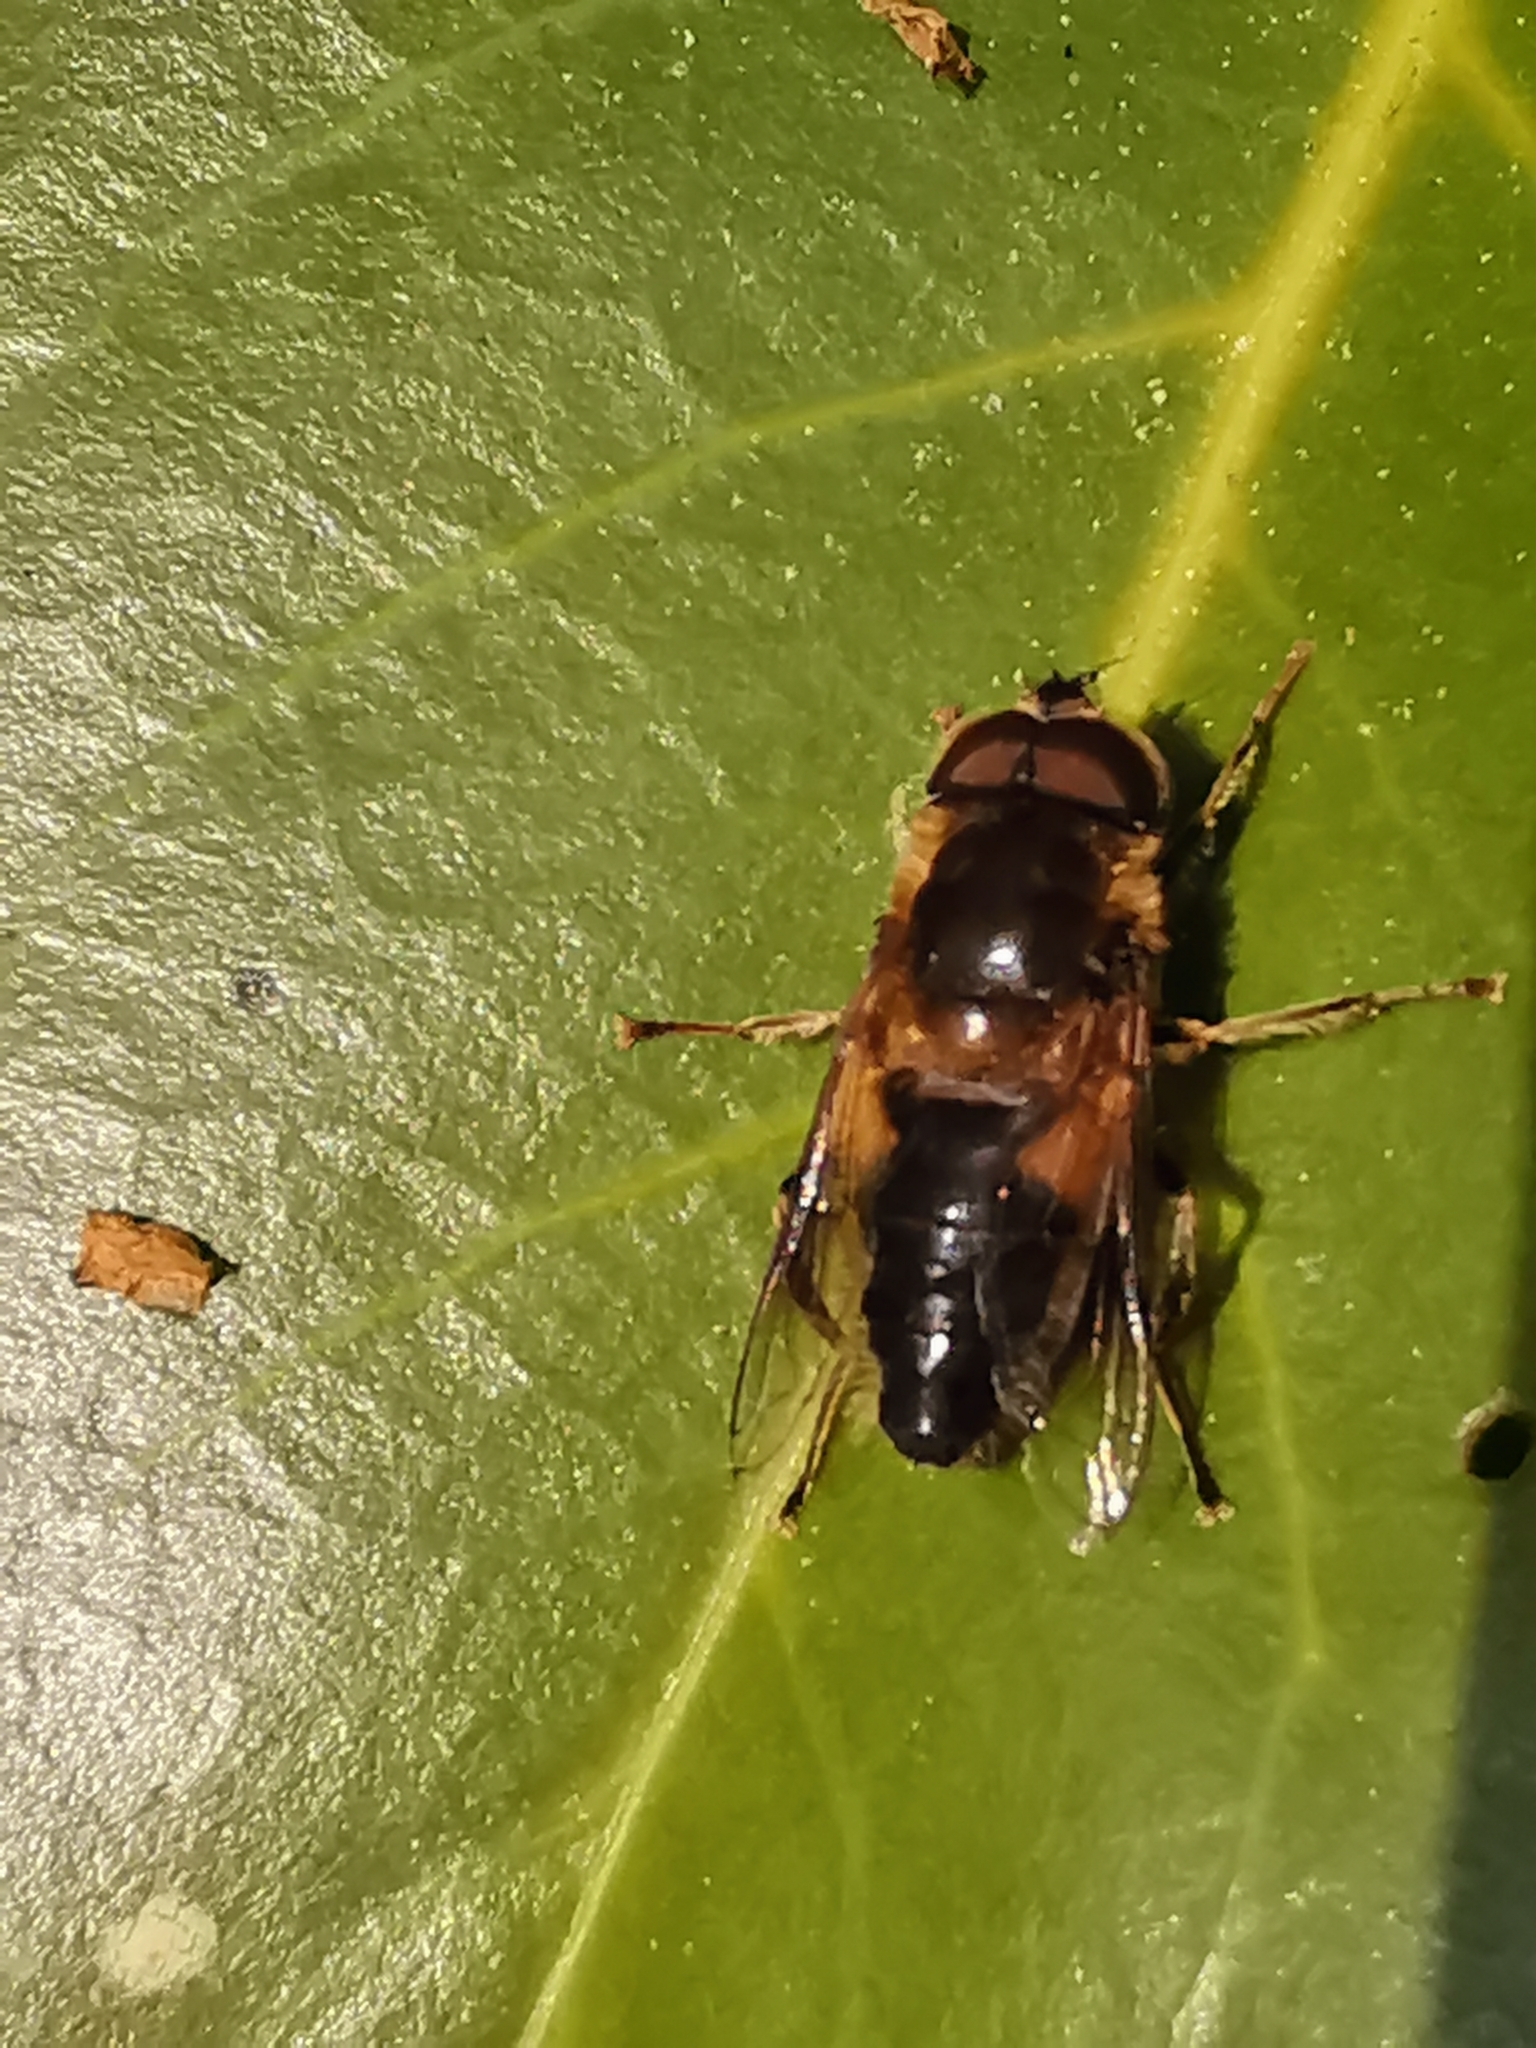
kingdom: Animalia
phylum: Arthropoda
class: Insecta
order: Diptera
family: Syrphidae
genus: Eristalis
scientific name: Eristalis pertinax
